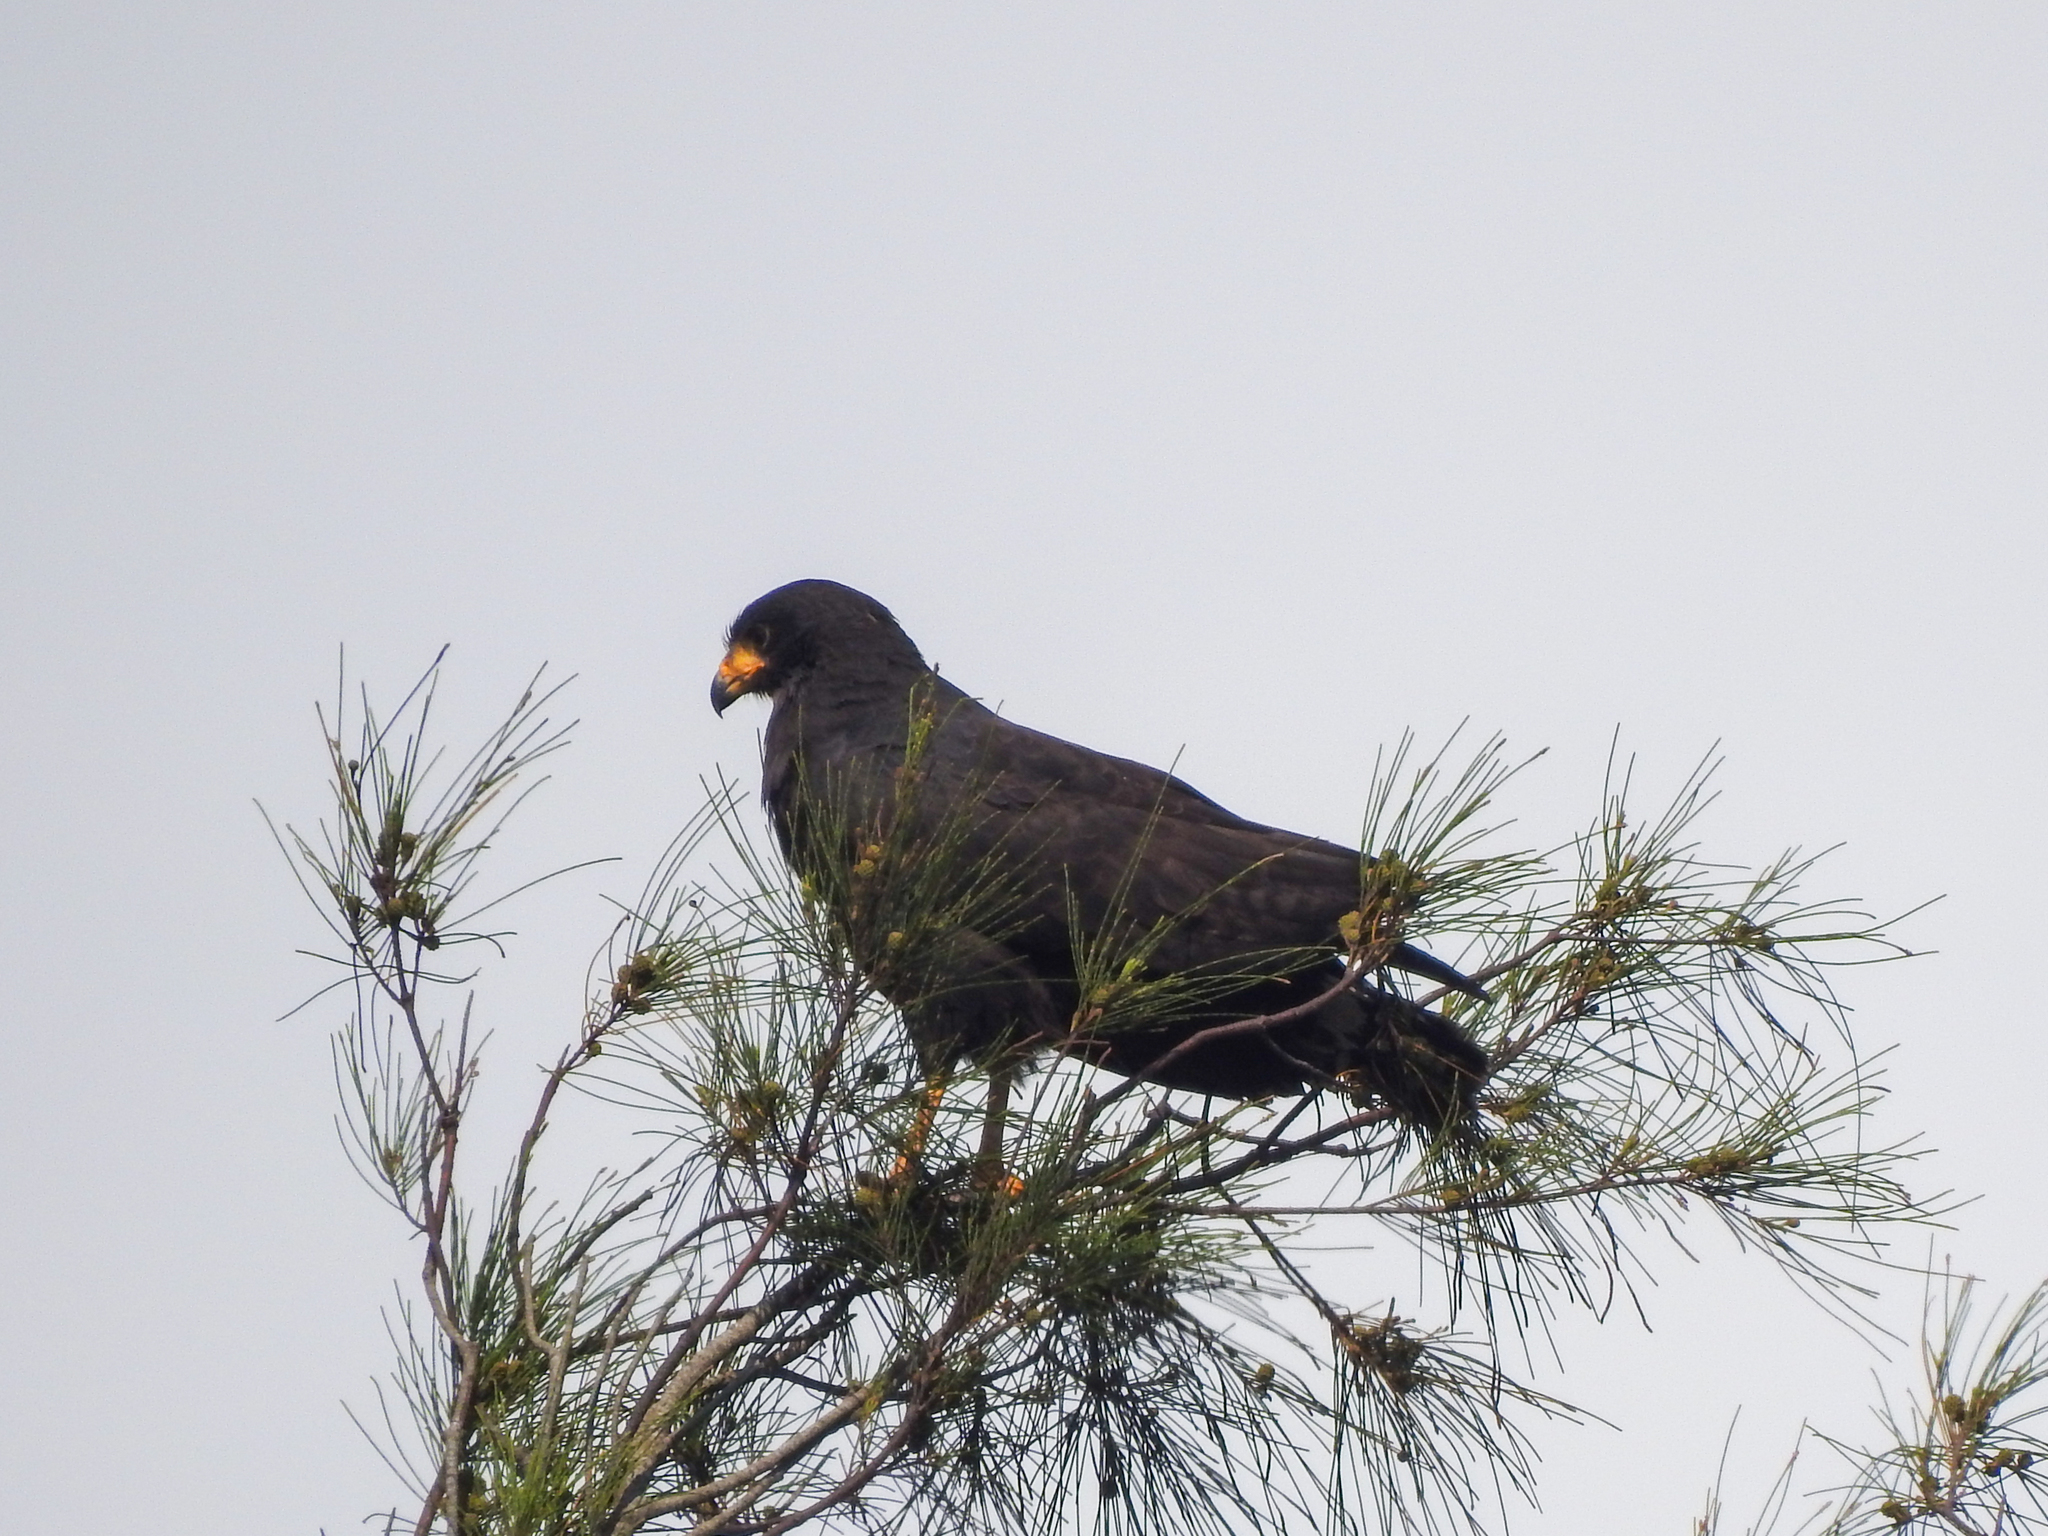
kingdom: Animalia
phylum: Chordata
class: Aves
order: Accipitriformes
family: Accipitridae
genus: Buteogallus
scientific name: Buteogallus anthracinus
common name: Common black hawk
